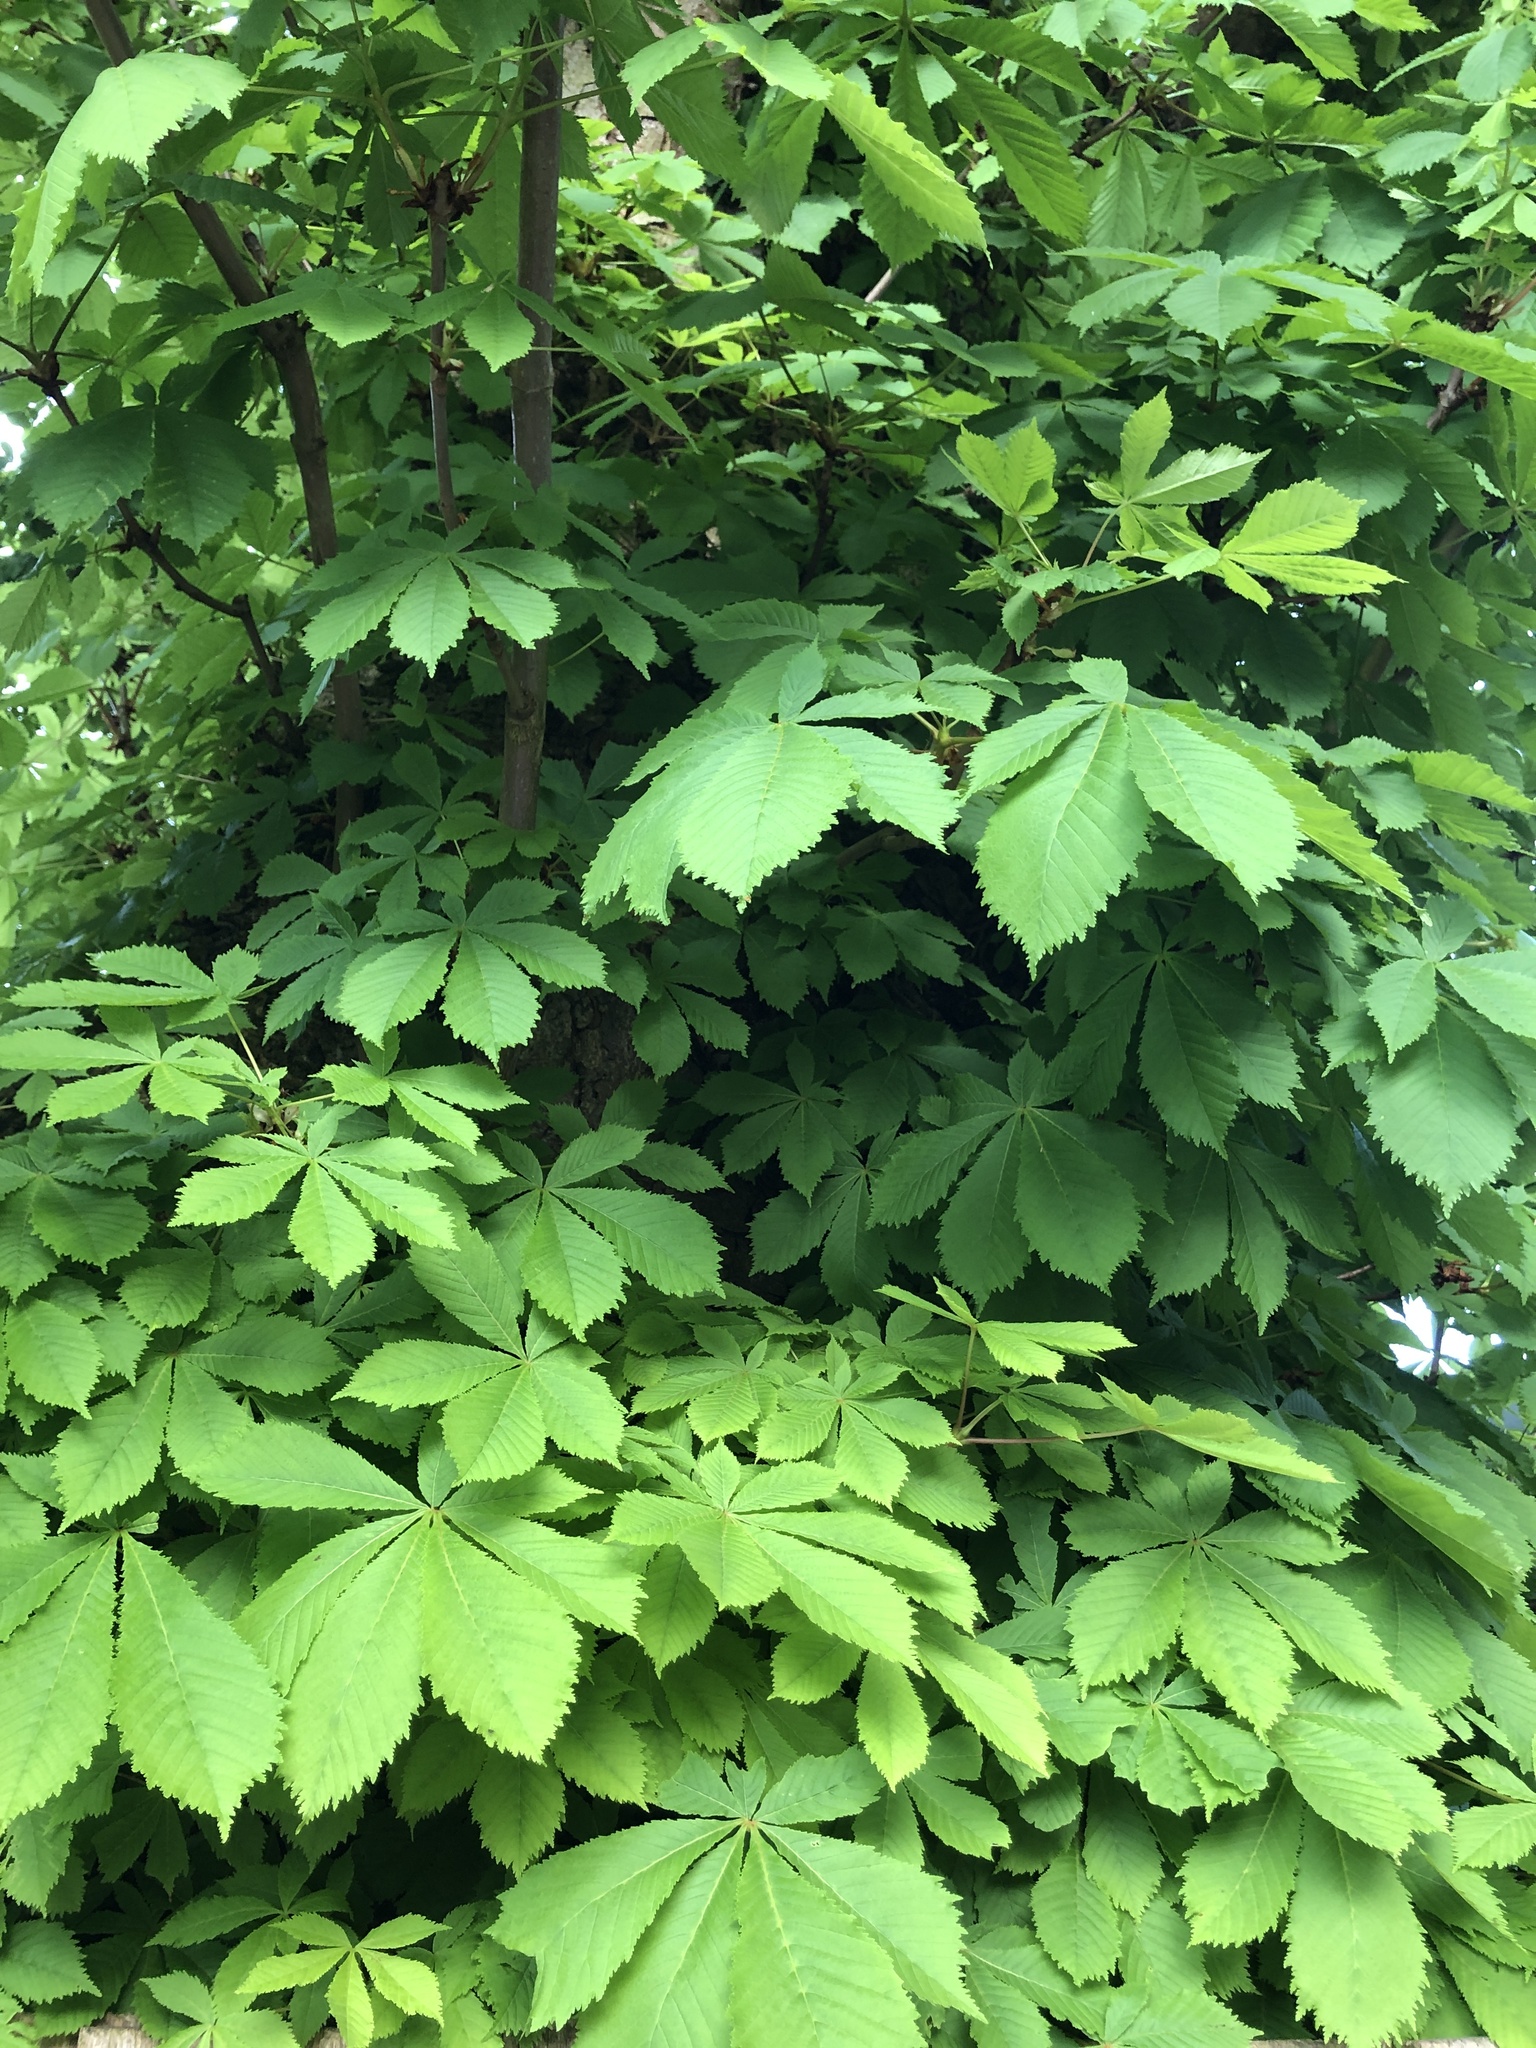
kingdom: Plantae
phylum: Tracheophyta
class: Magnoliopsida
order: Sapindales
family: Sapindaceae
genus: Aesculus
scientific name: Aesculus hippocastanum
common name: Horse-chestnut
